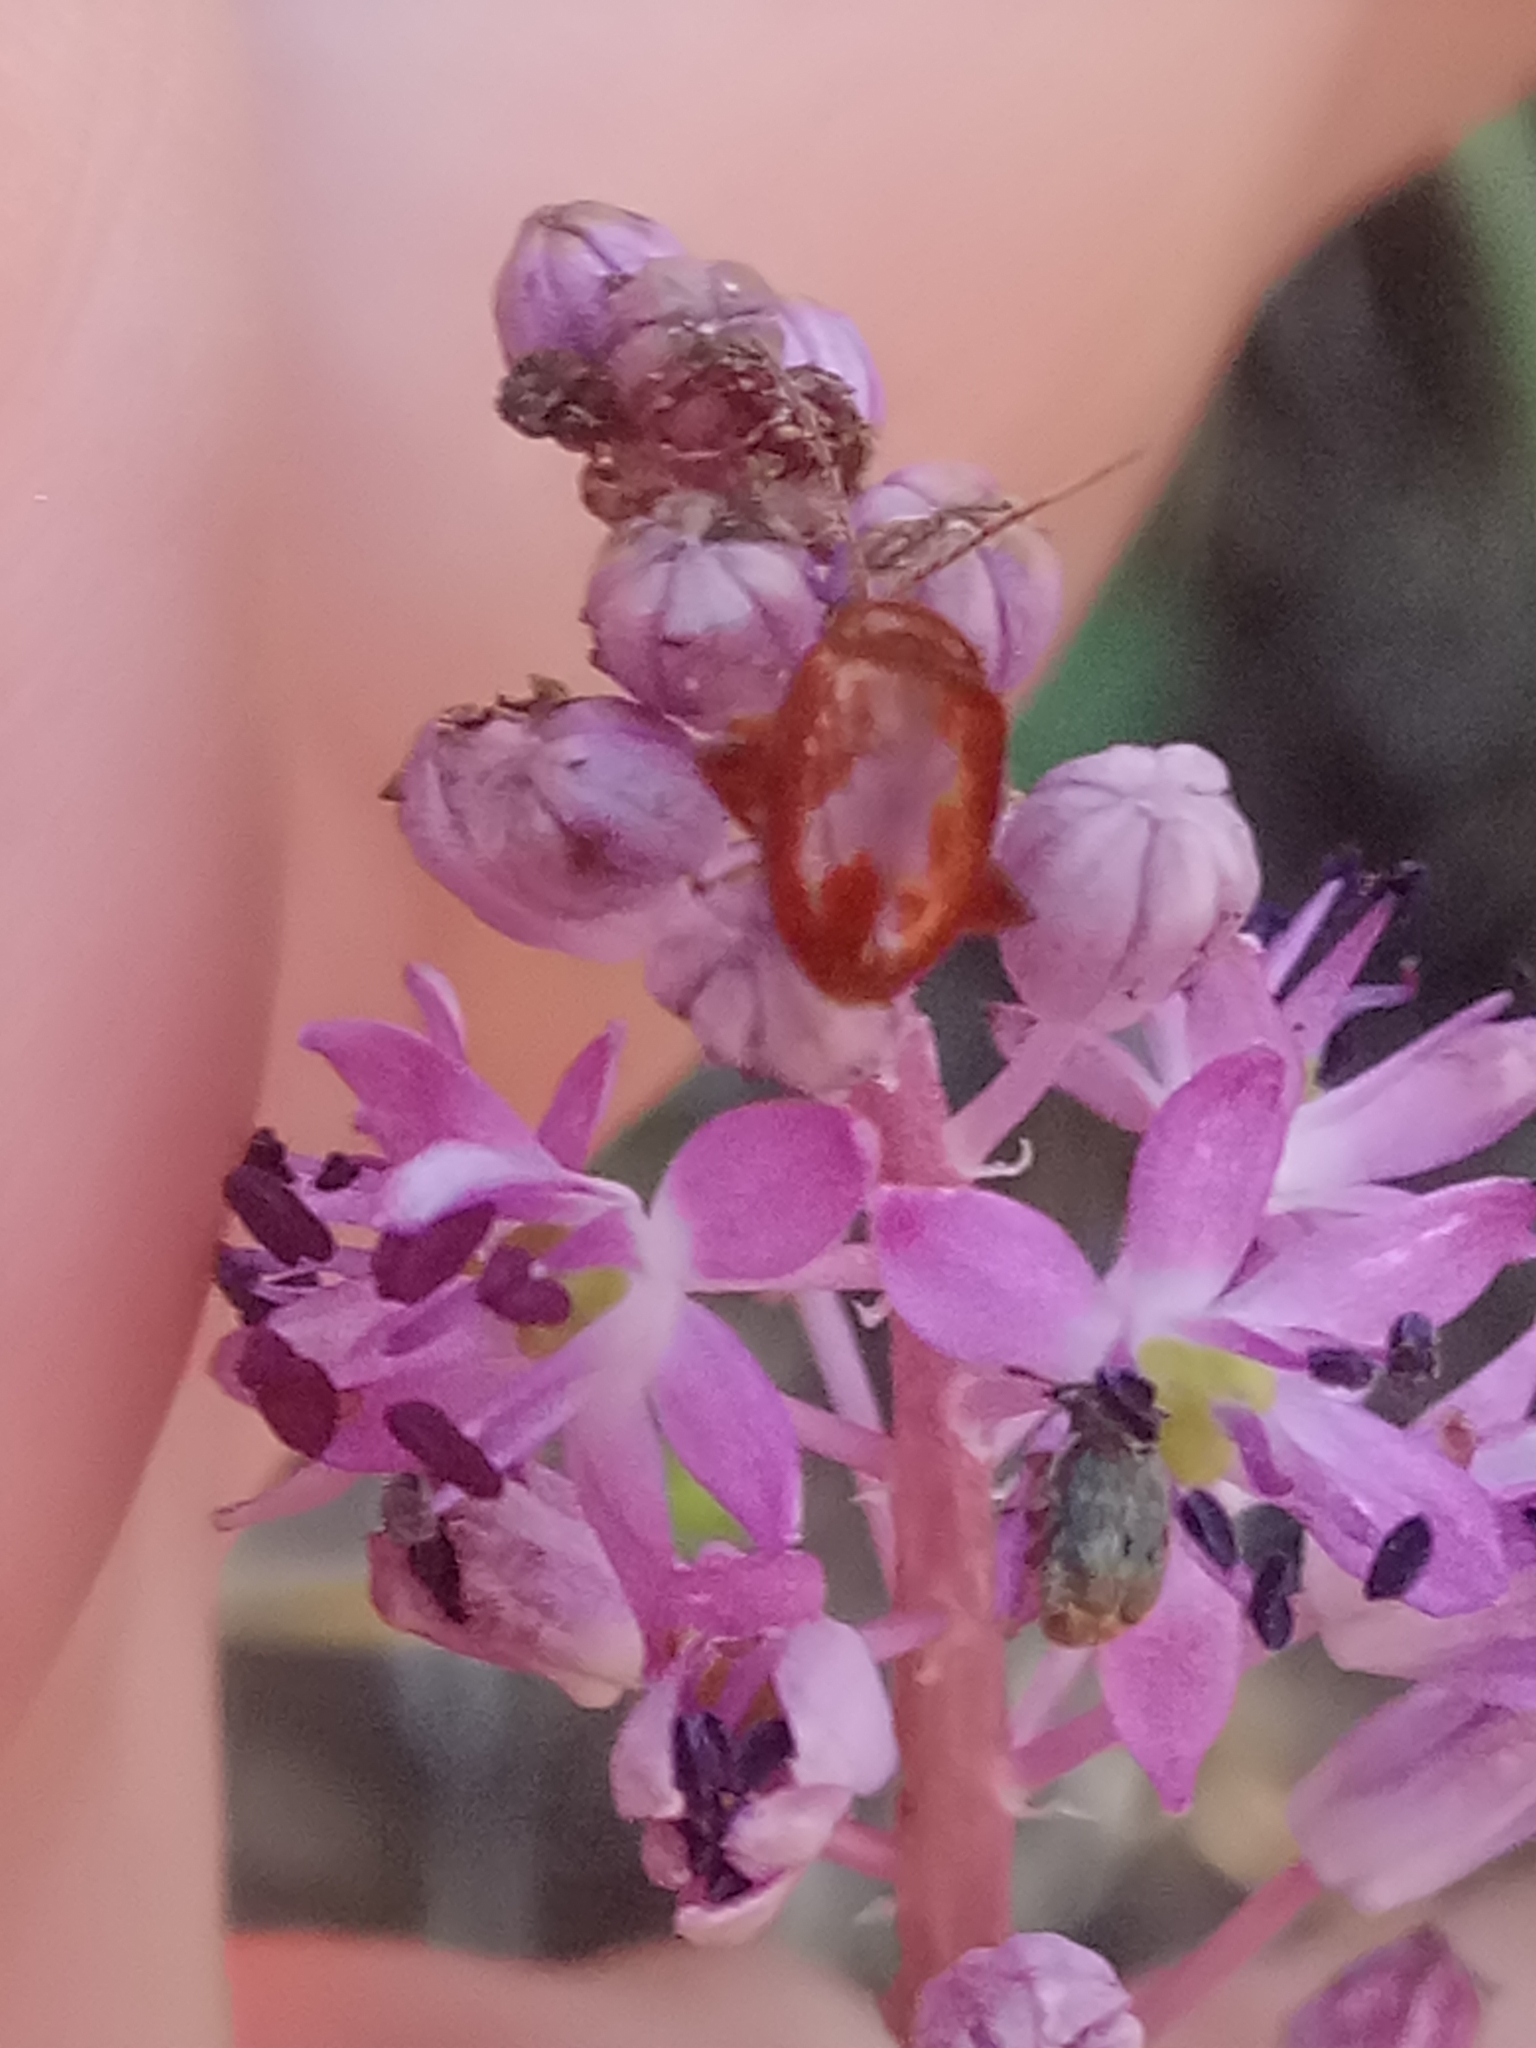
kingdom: Plantae
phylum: Tracheophyta
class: Liliopsida
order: Asparagales
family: Asparagaceae
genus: Barnardia
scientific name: Barnardia numidica
